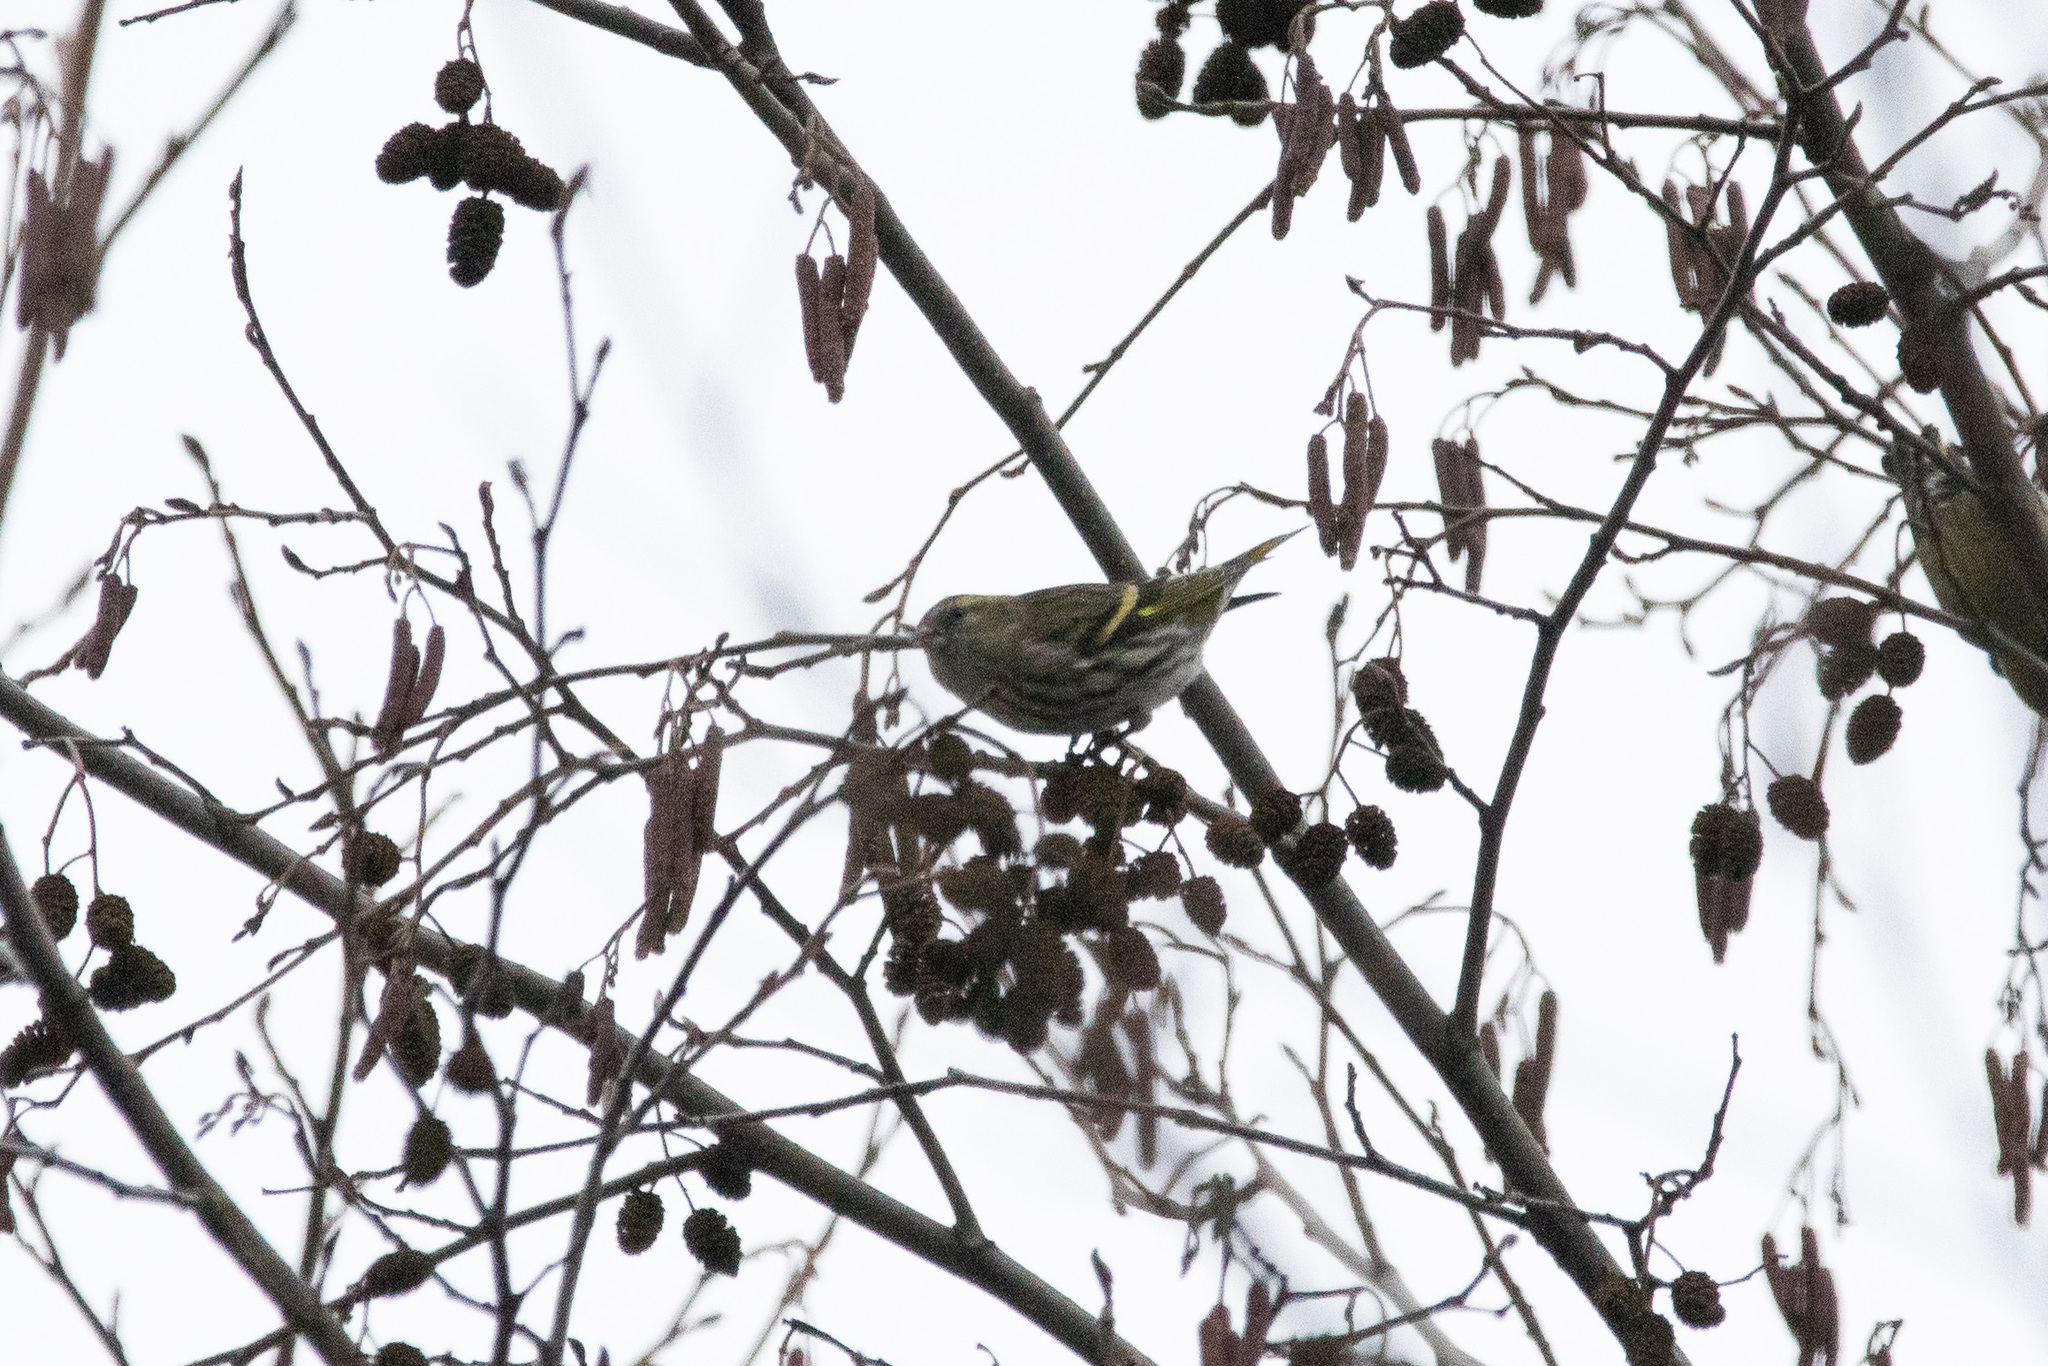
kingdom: Animalia
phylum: Chordata
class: Aves
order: Passeriformes
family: Fringillidae
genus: Spinus
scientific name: Spinus spinus
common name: Eurasian siskin
